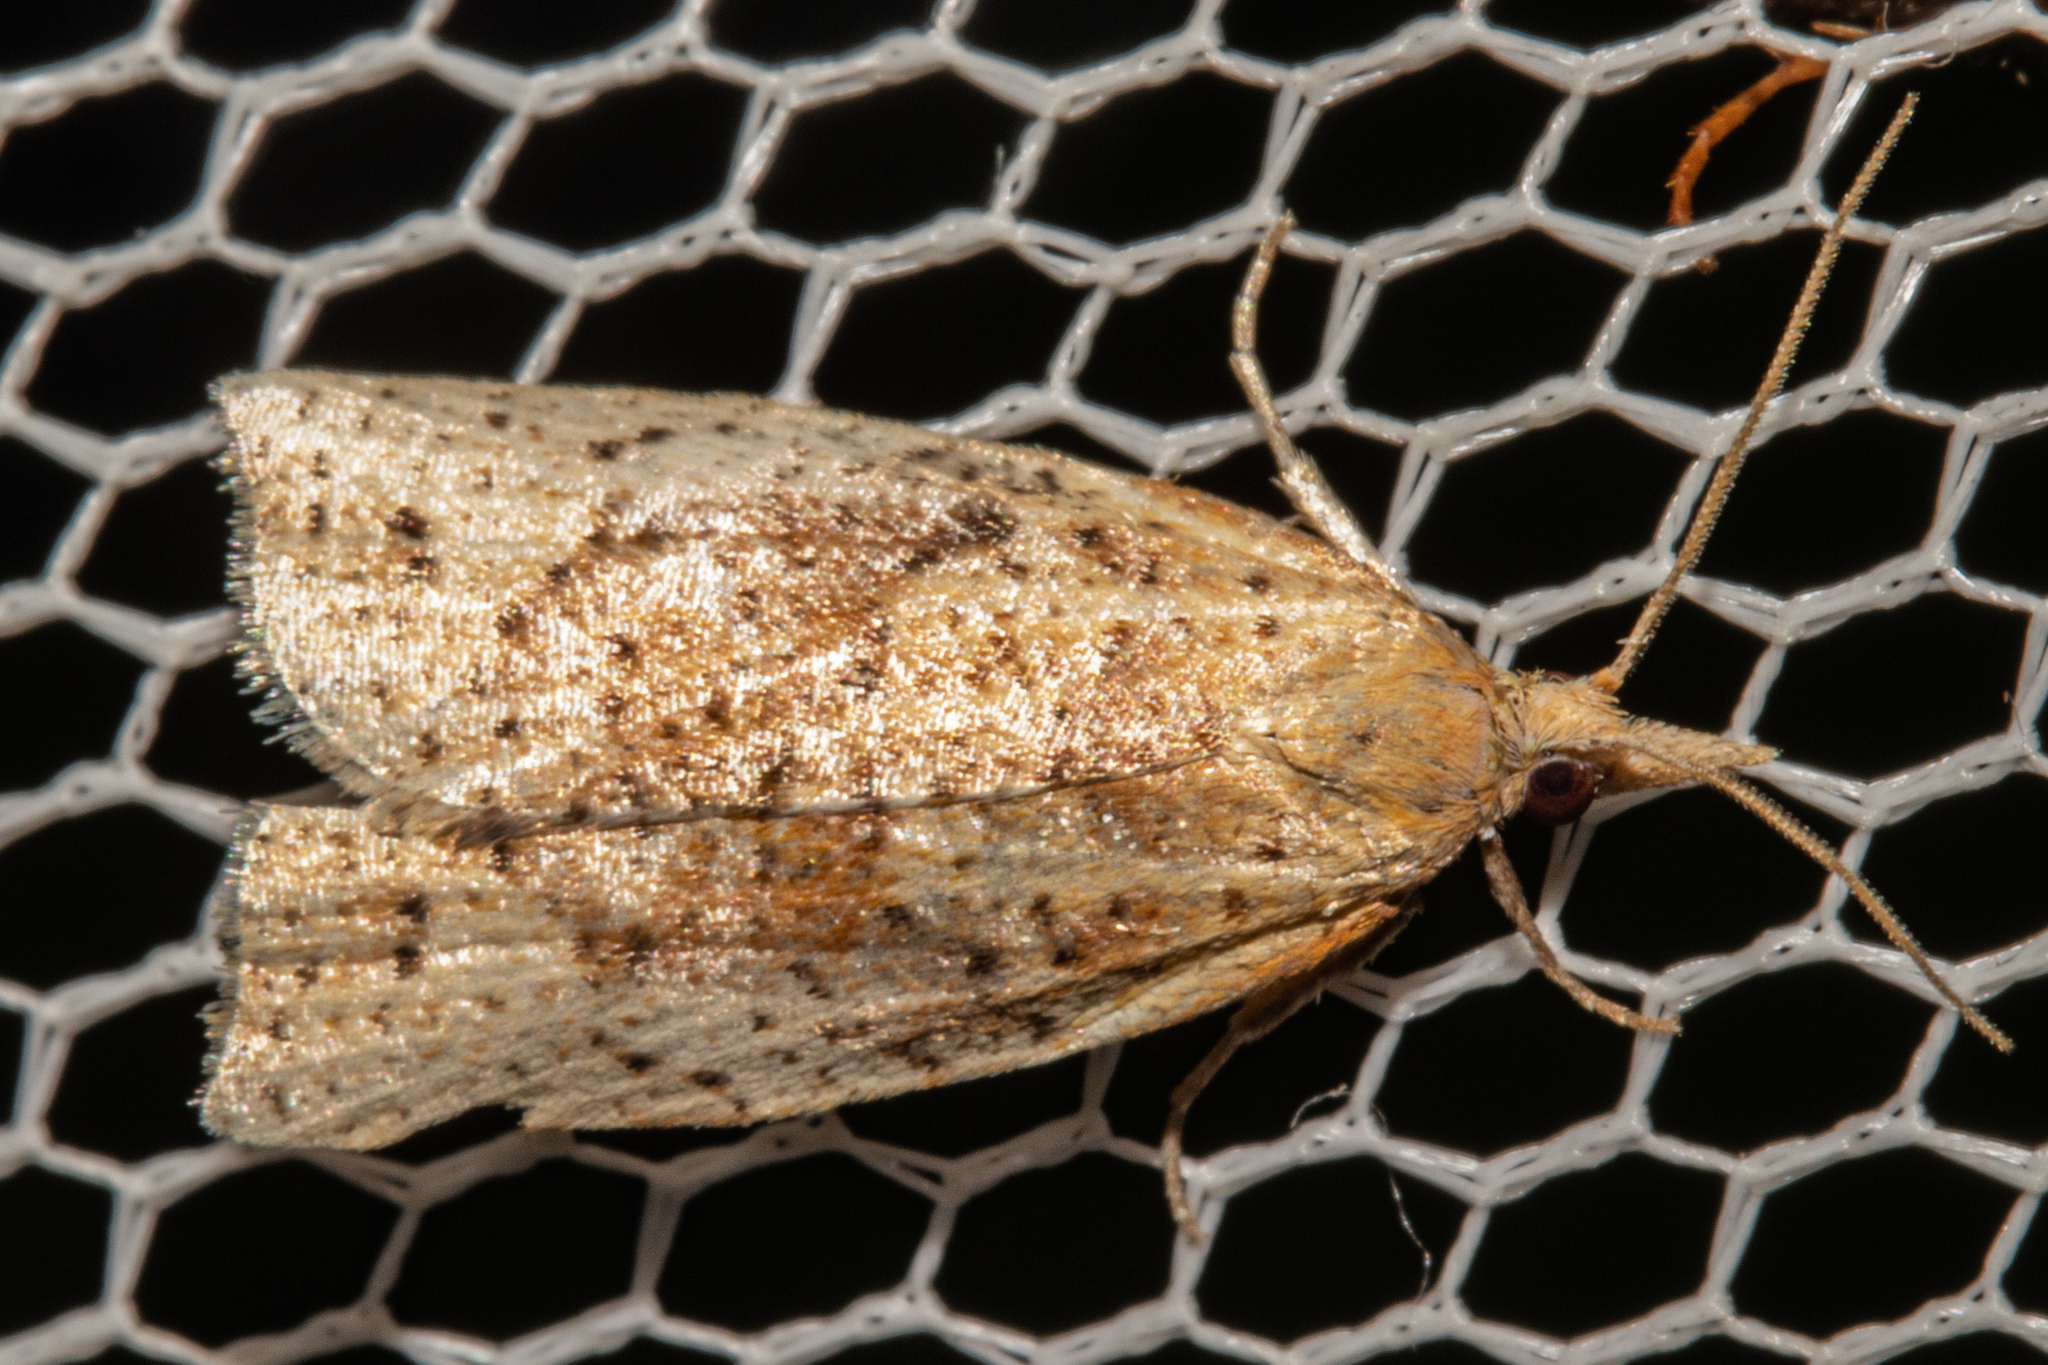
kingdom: Animalia
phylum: Arthropoda
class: Insecta
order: Lepidoptera
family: Tortricidae
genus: Apoctena
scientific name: Apoctena conditana
